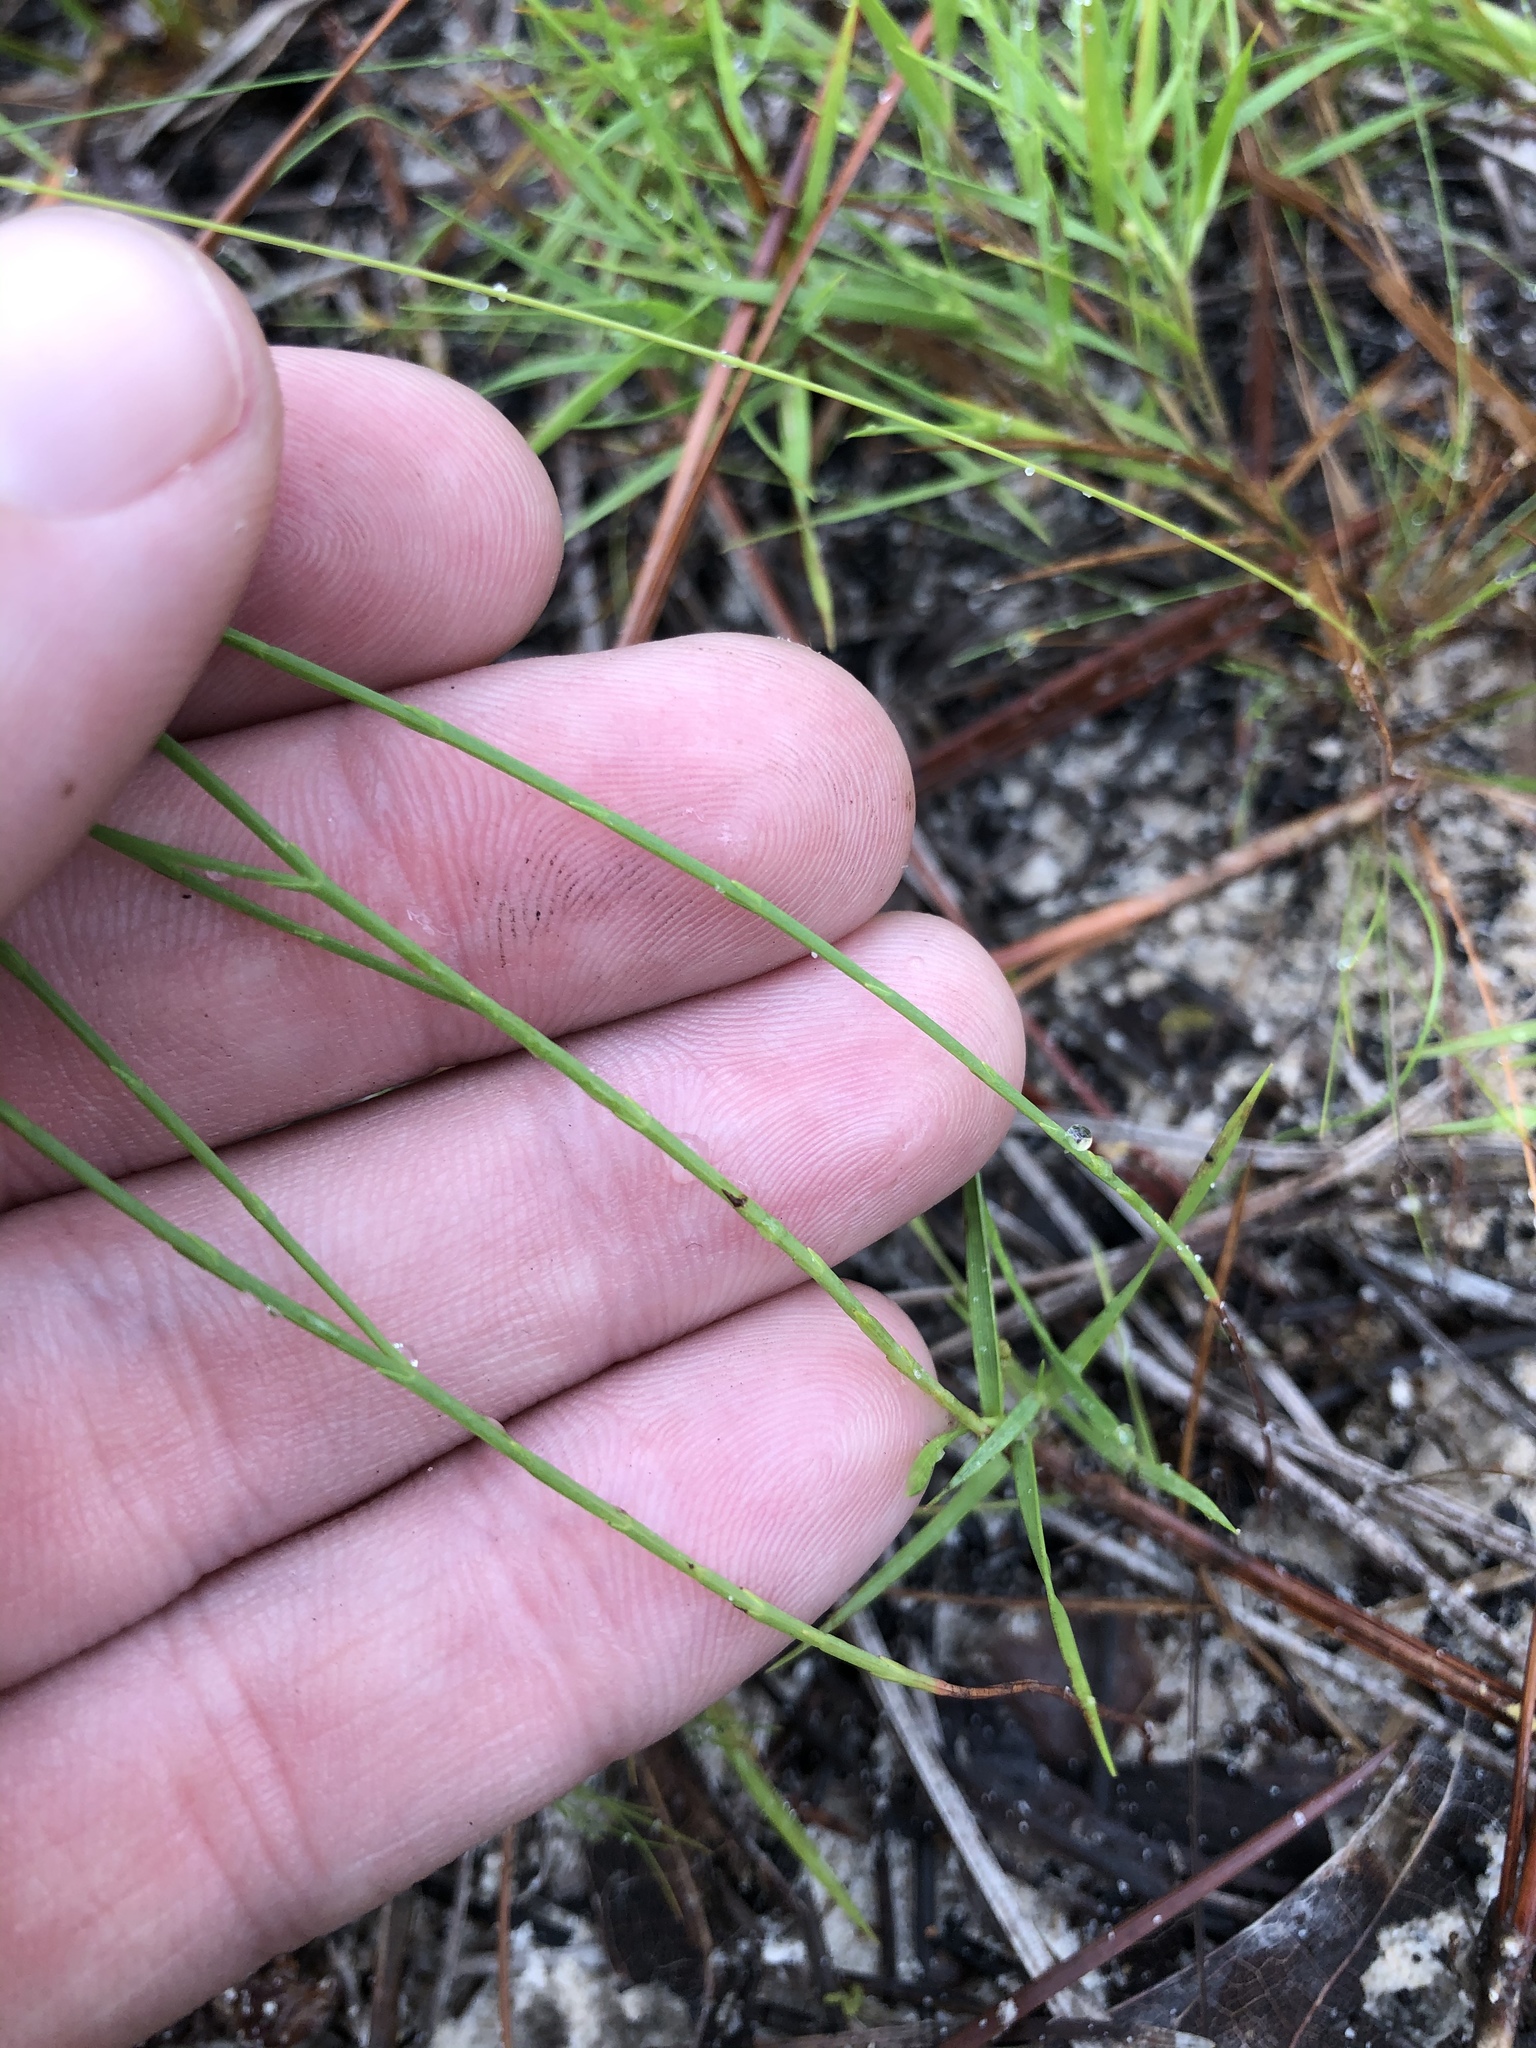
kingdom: Plantae
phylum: Tracheophyta
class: Magnoliopsida
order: Malpighiales
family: Hypericaceae
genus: Hypericum
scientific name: Hypericum gentianoides
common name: Gentian-leaved st. john's-wort
